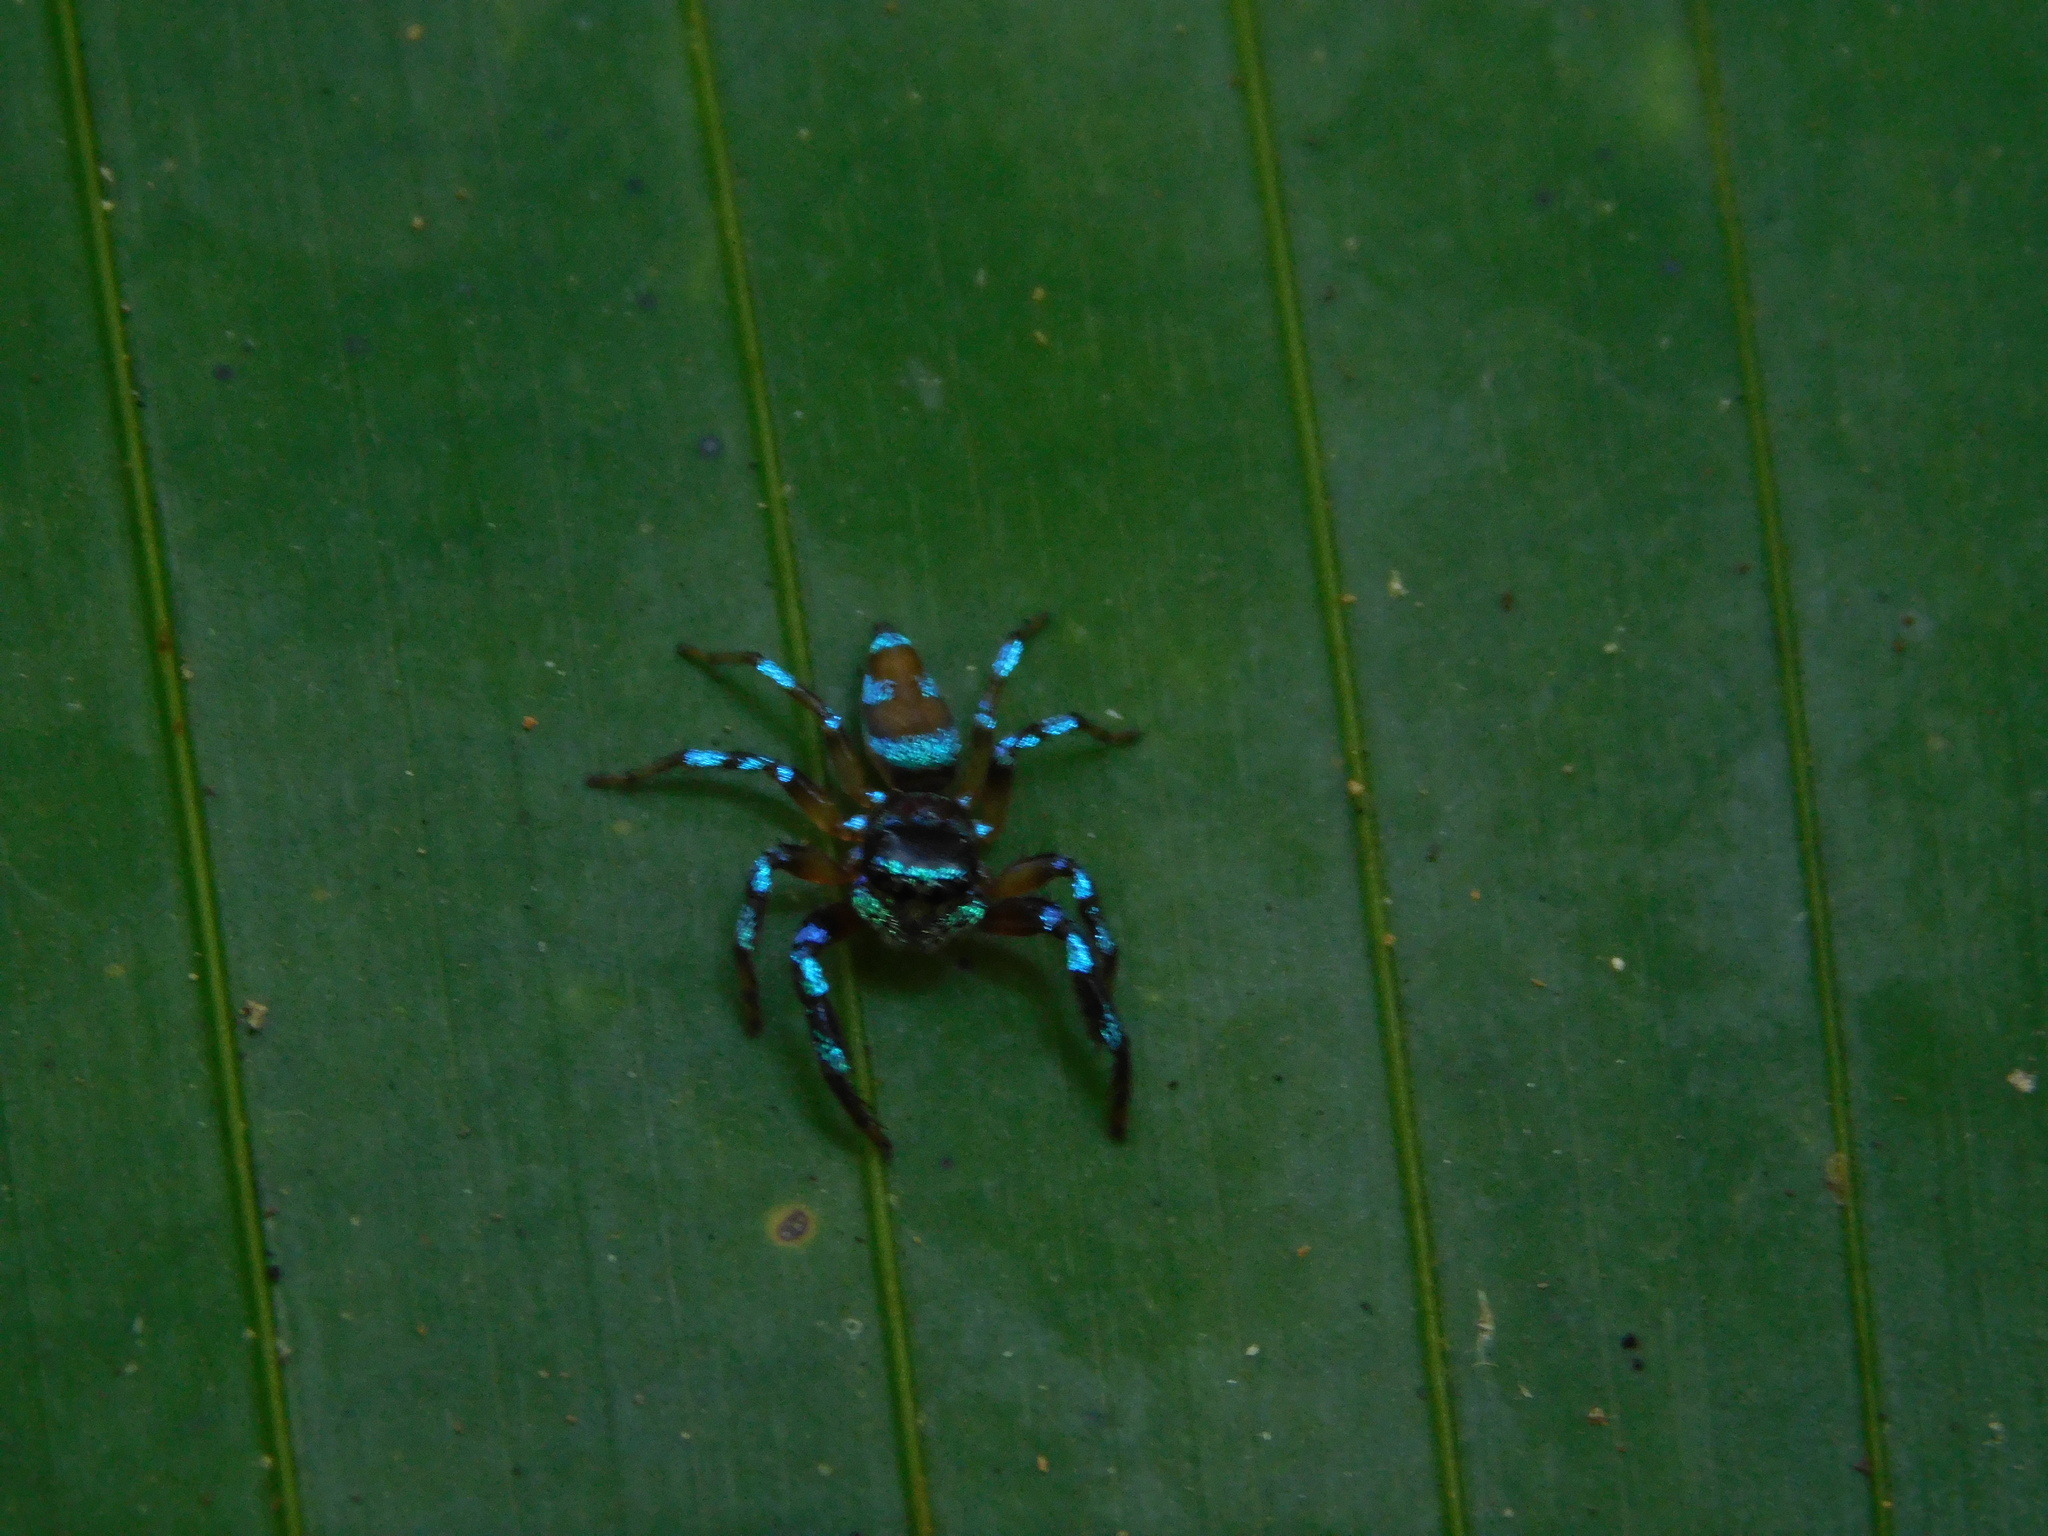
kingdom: Animalia
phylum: Arthropoda
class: Arachnida
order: Araneae
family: Salticidae
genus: Thiania
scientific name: Thiania demissa
